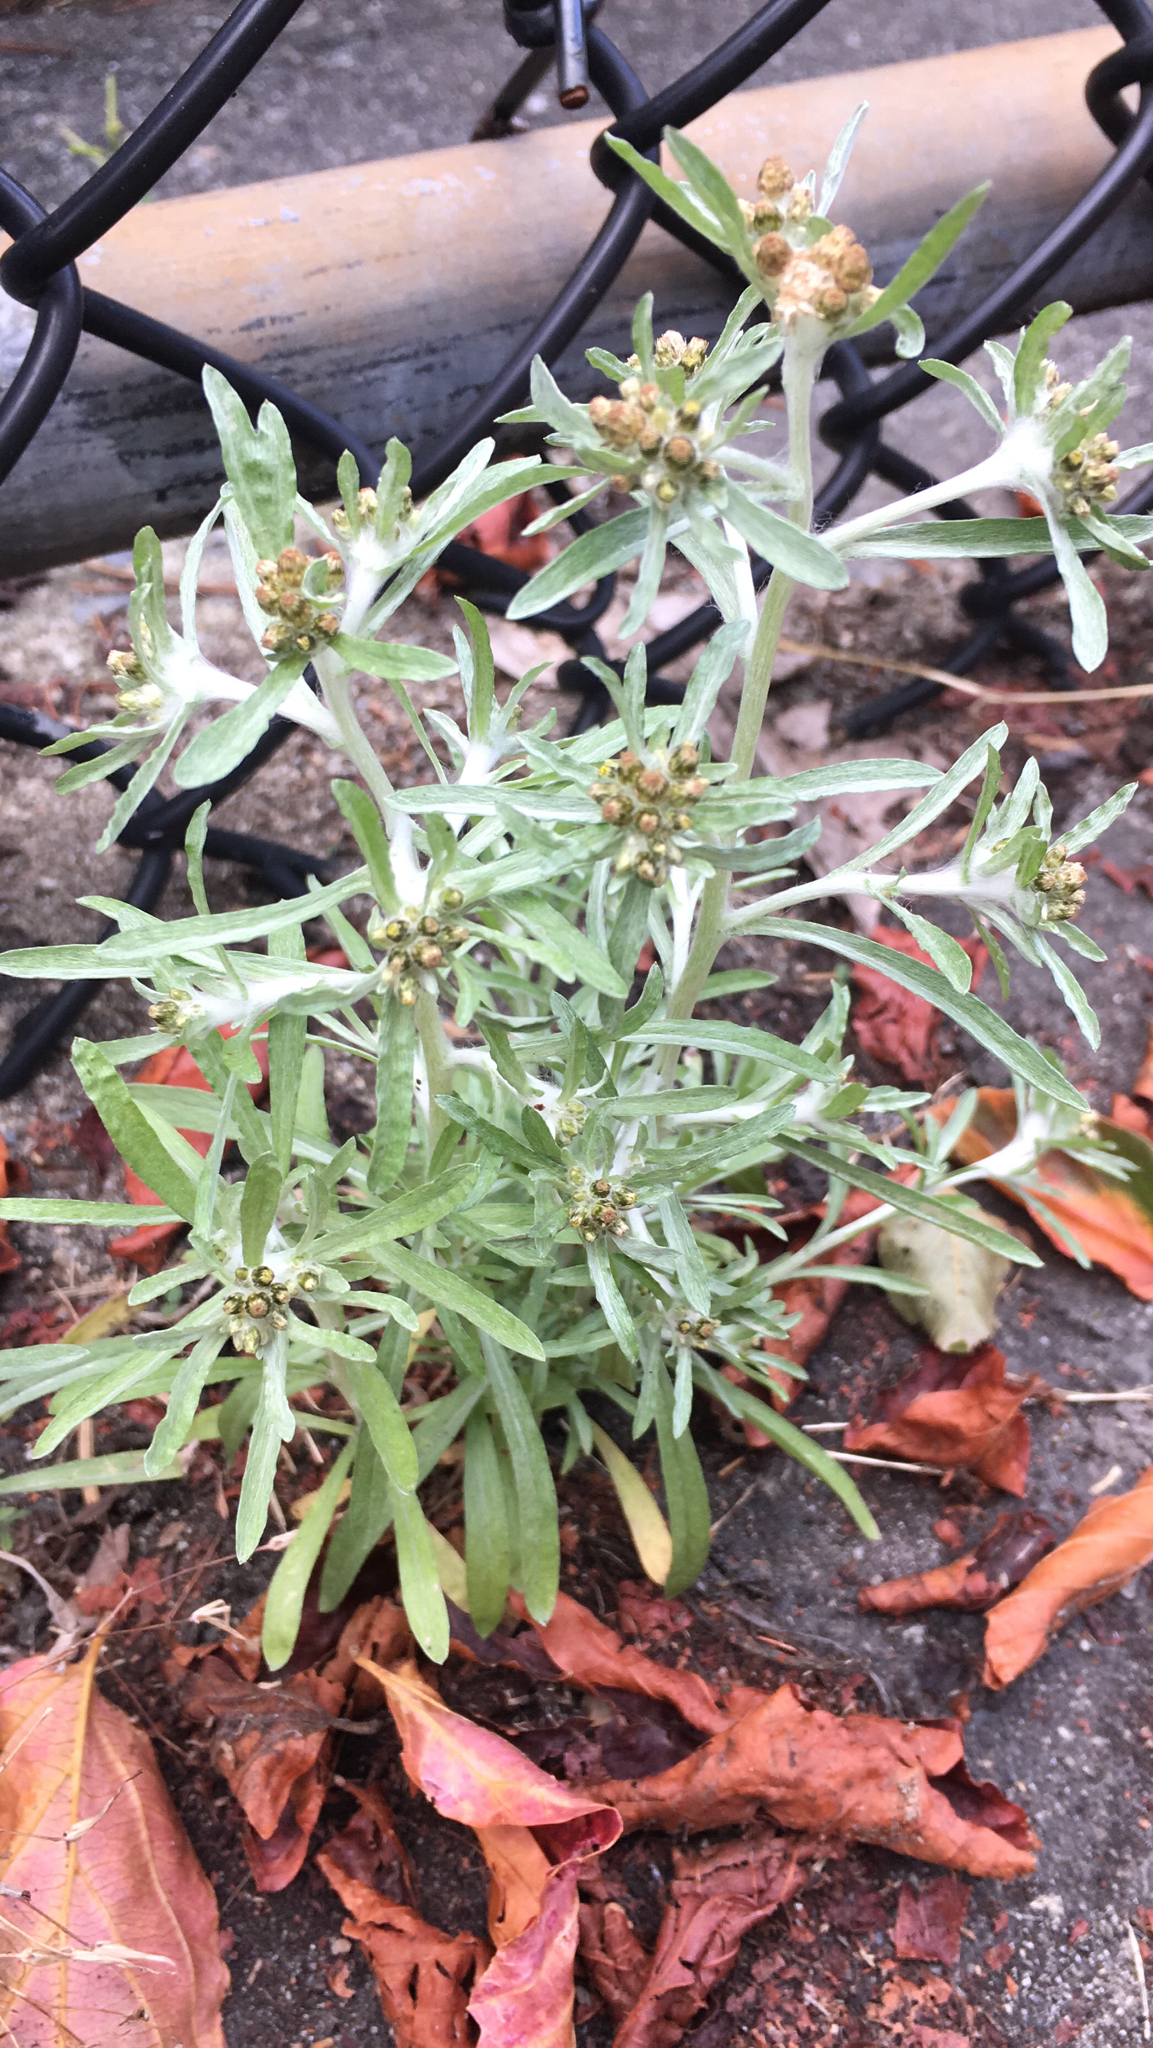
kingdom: Plantae
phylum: Tracheophyta
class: Magnoliopsida
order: Asterales
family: Asteraceae
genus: Gnaphalium
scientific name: Gnaphalium uliginosum
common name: Marsh cudweed
